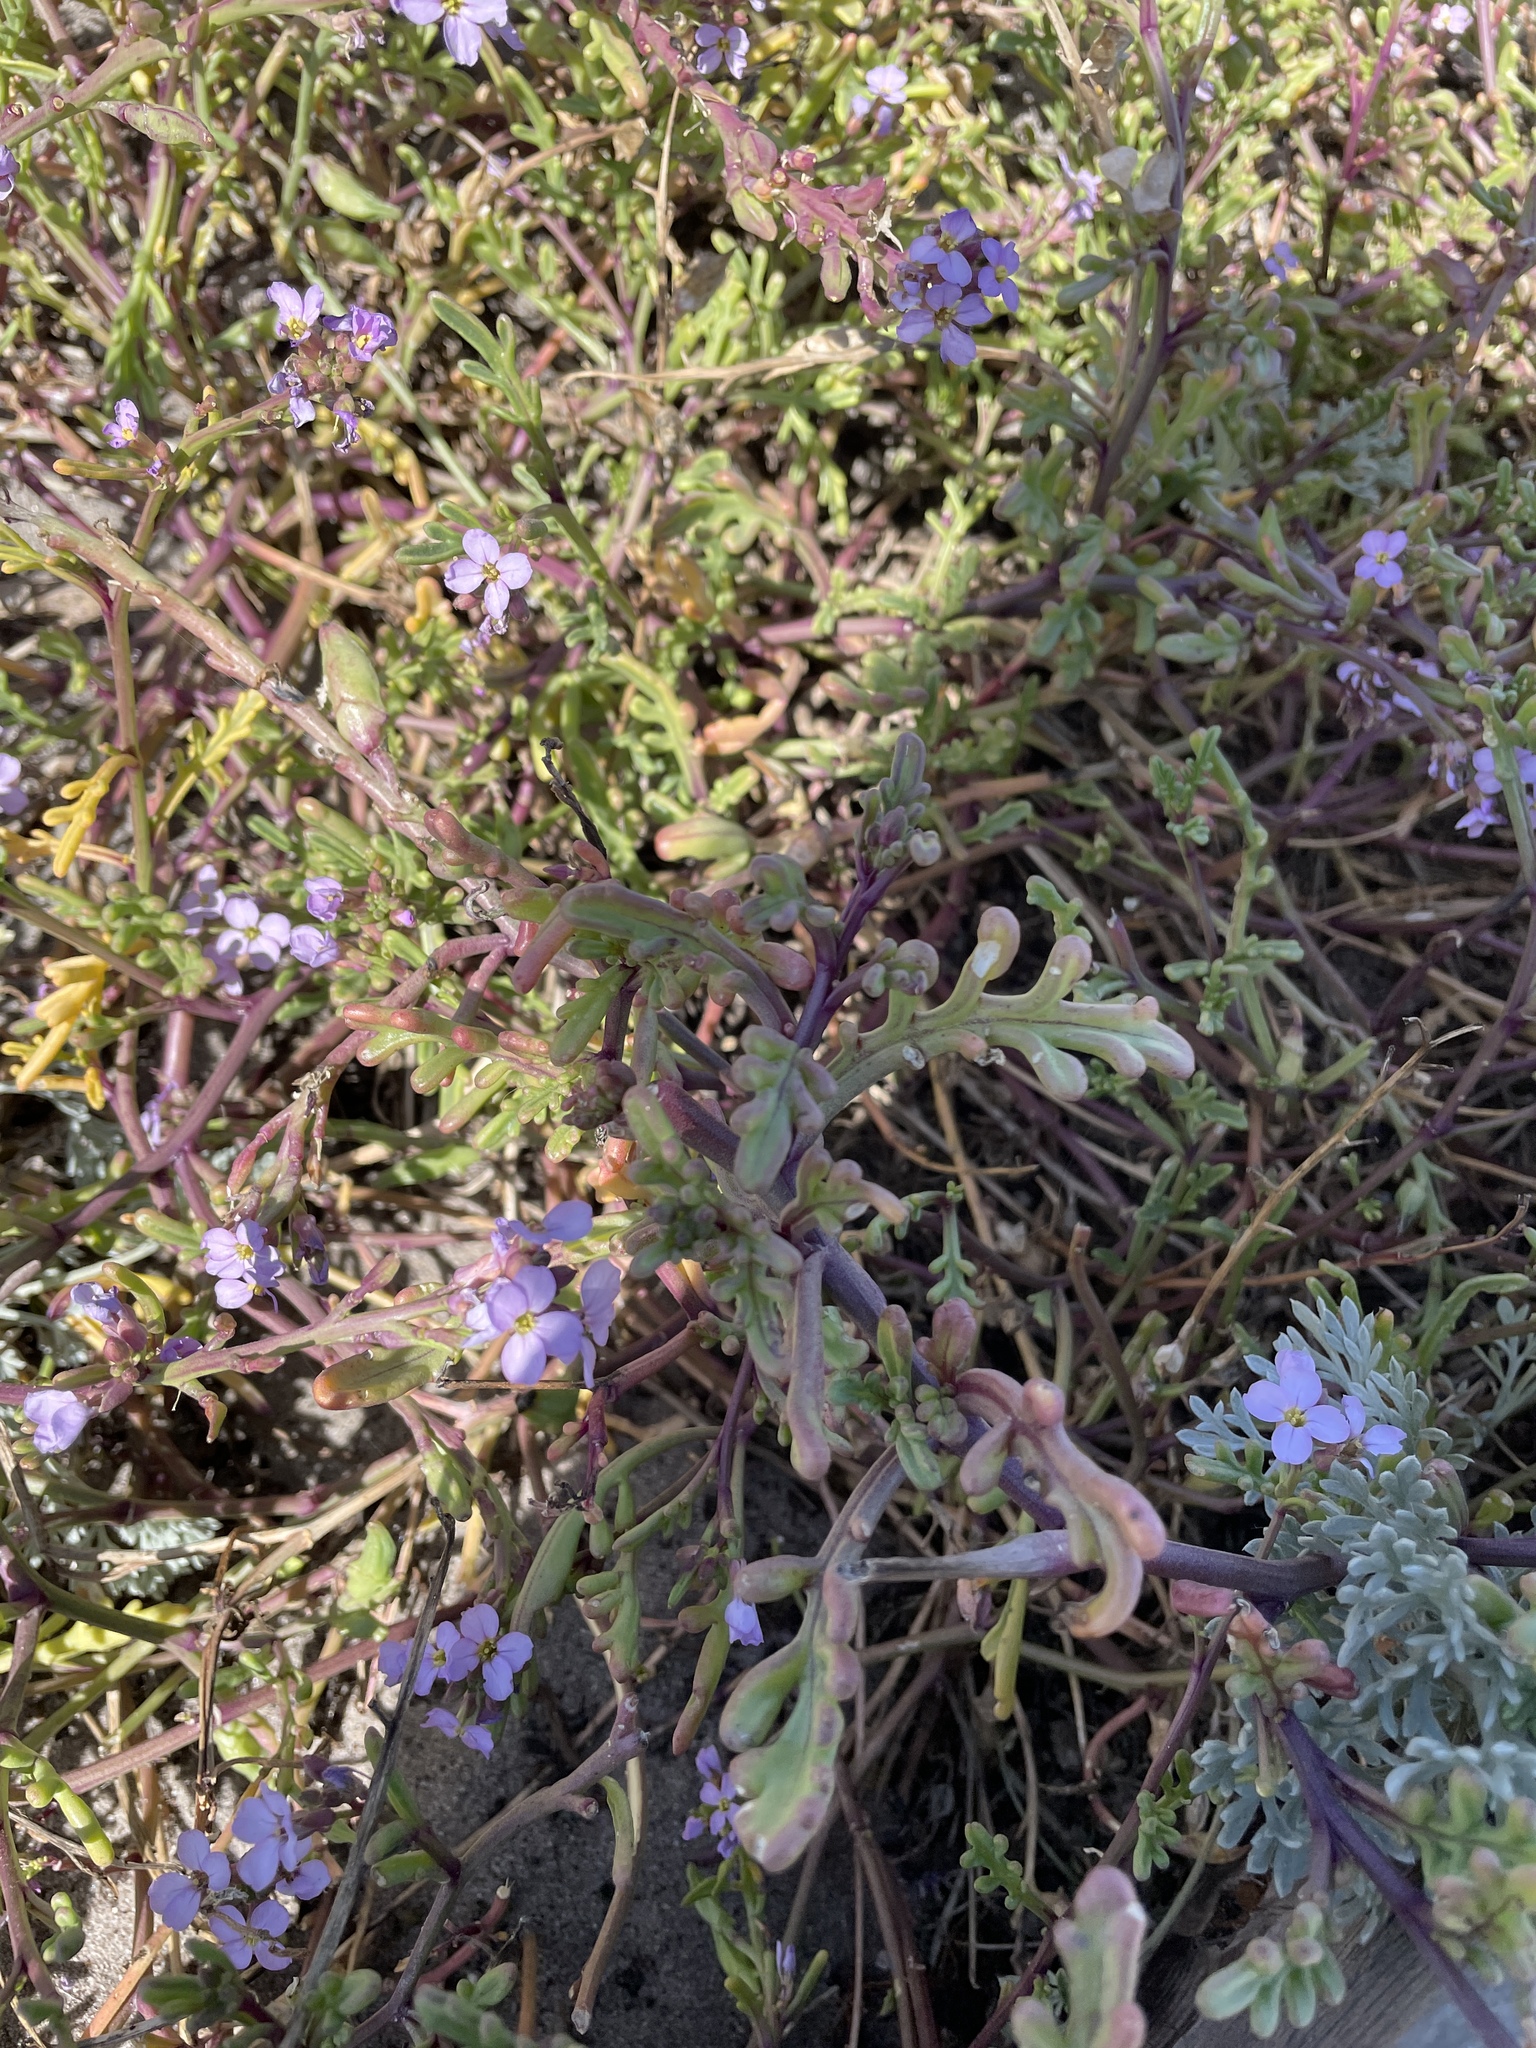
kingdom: Plantae
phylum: Tracheophyta
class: Magnoliopsida
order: Brassicales
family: Brassicaceae
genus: Cakile
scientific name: Cakile maritima
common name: Sea rocket
